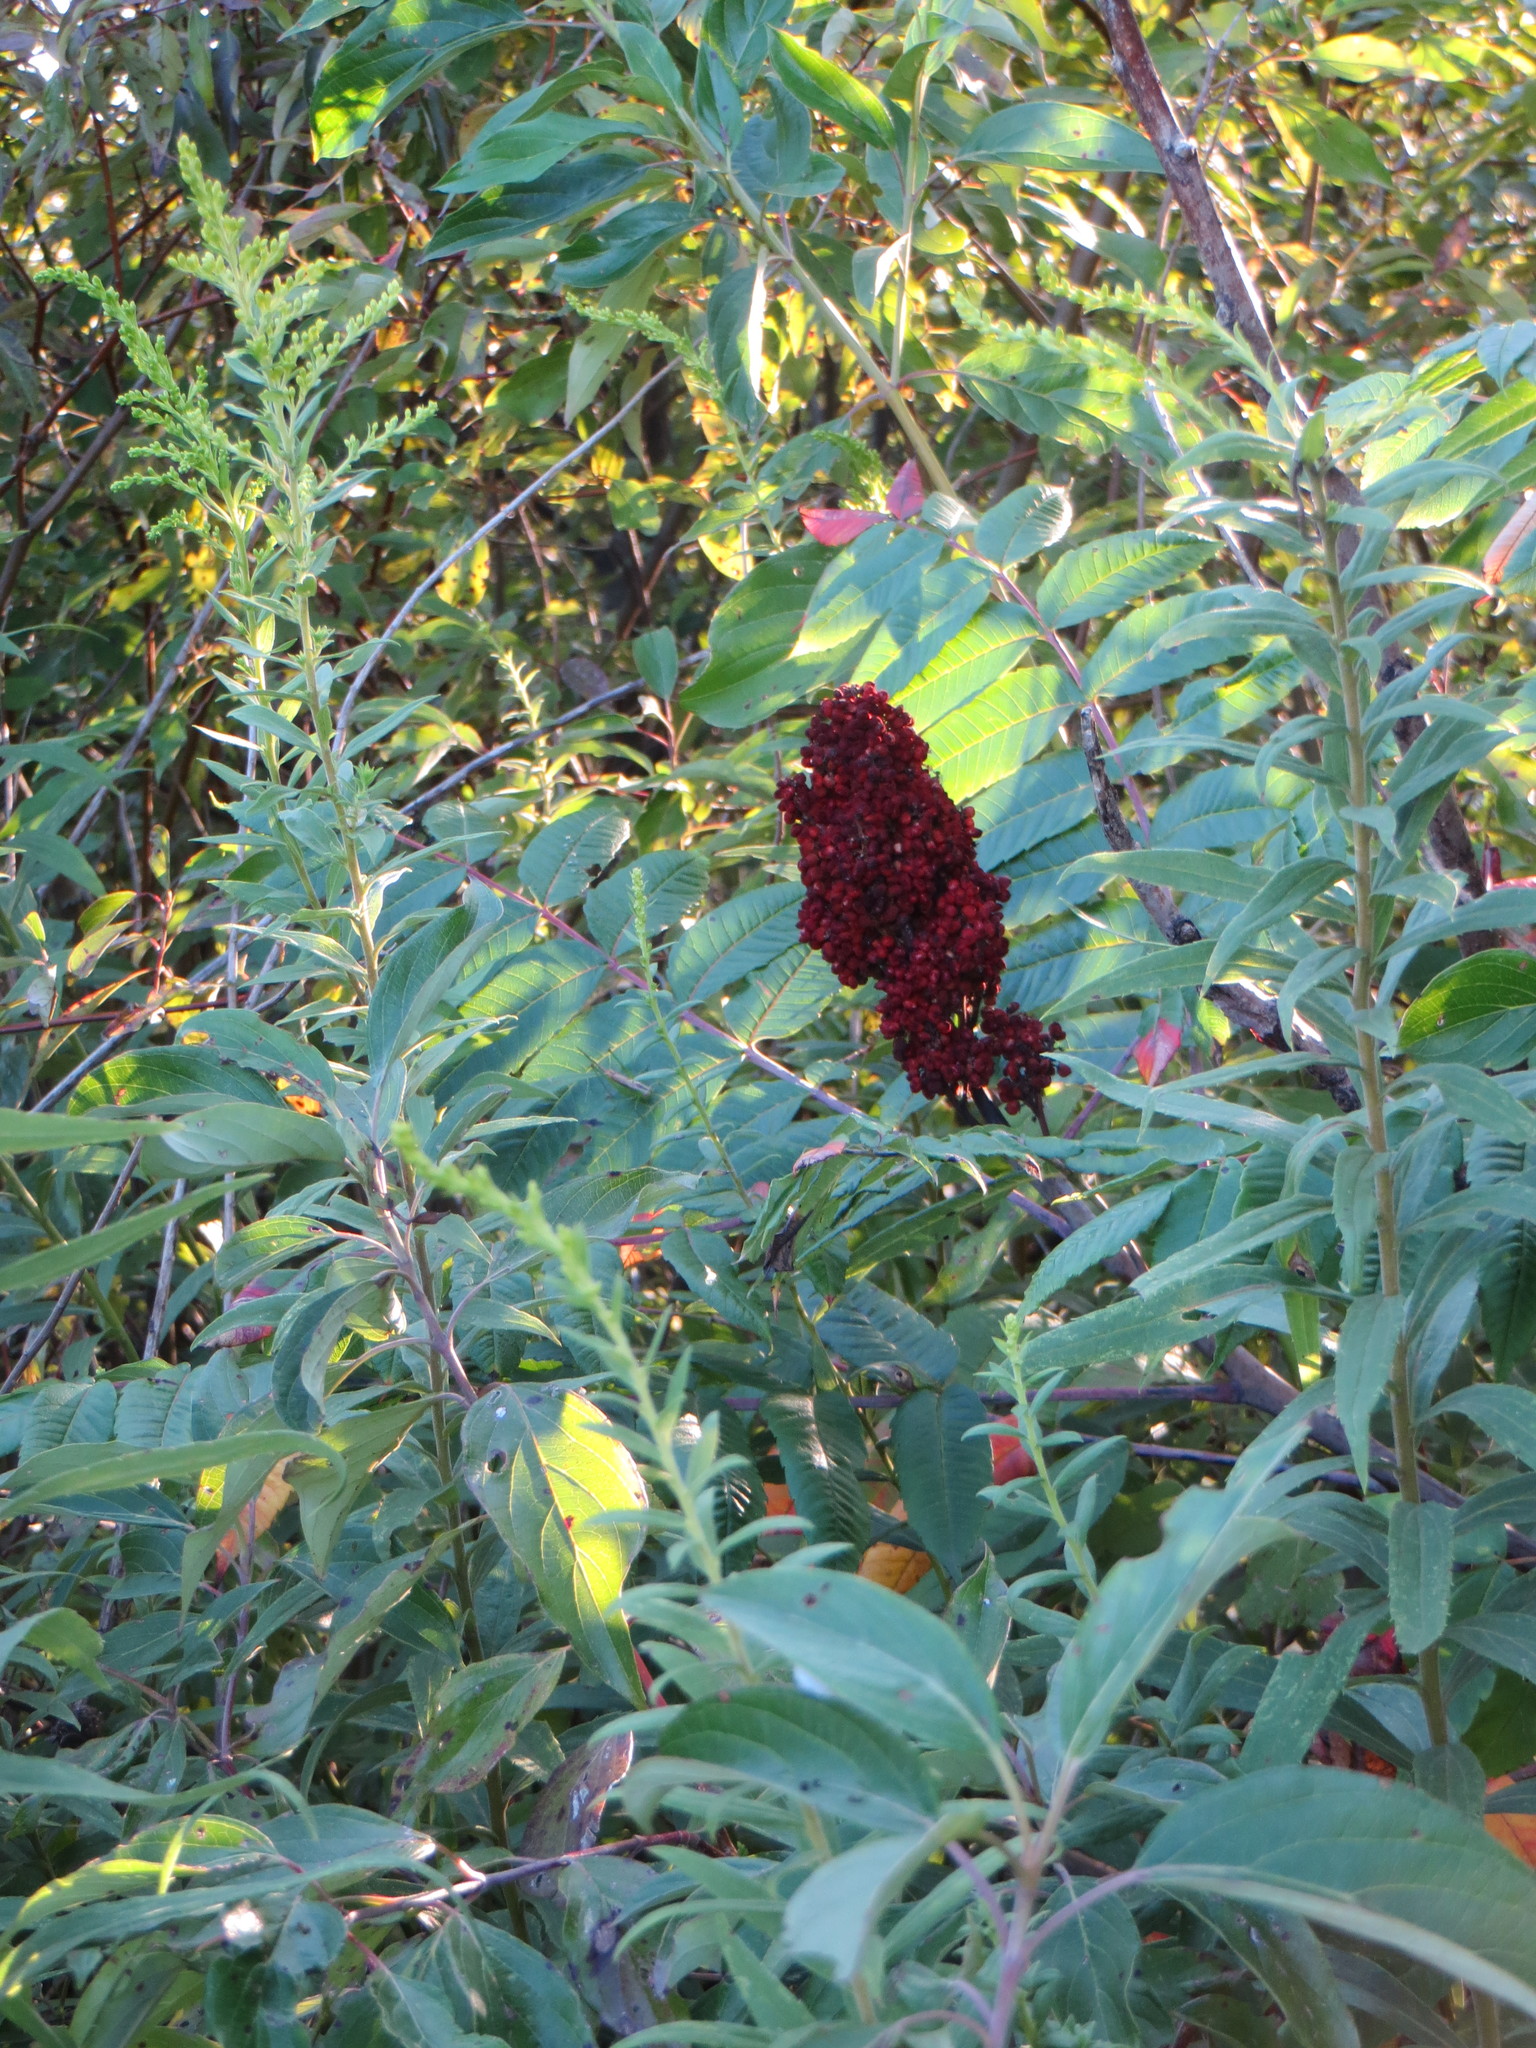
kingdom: Plantae
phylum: Tracheophyta
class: Magnoliopsida
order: Sapindales
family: Anacardiaceae
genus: Rhus
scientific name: Rhus glabra
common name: Scarlet sumac
